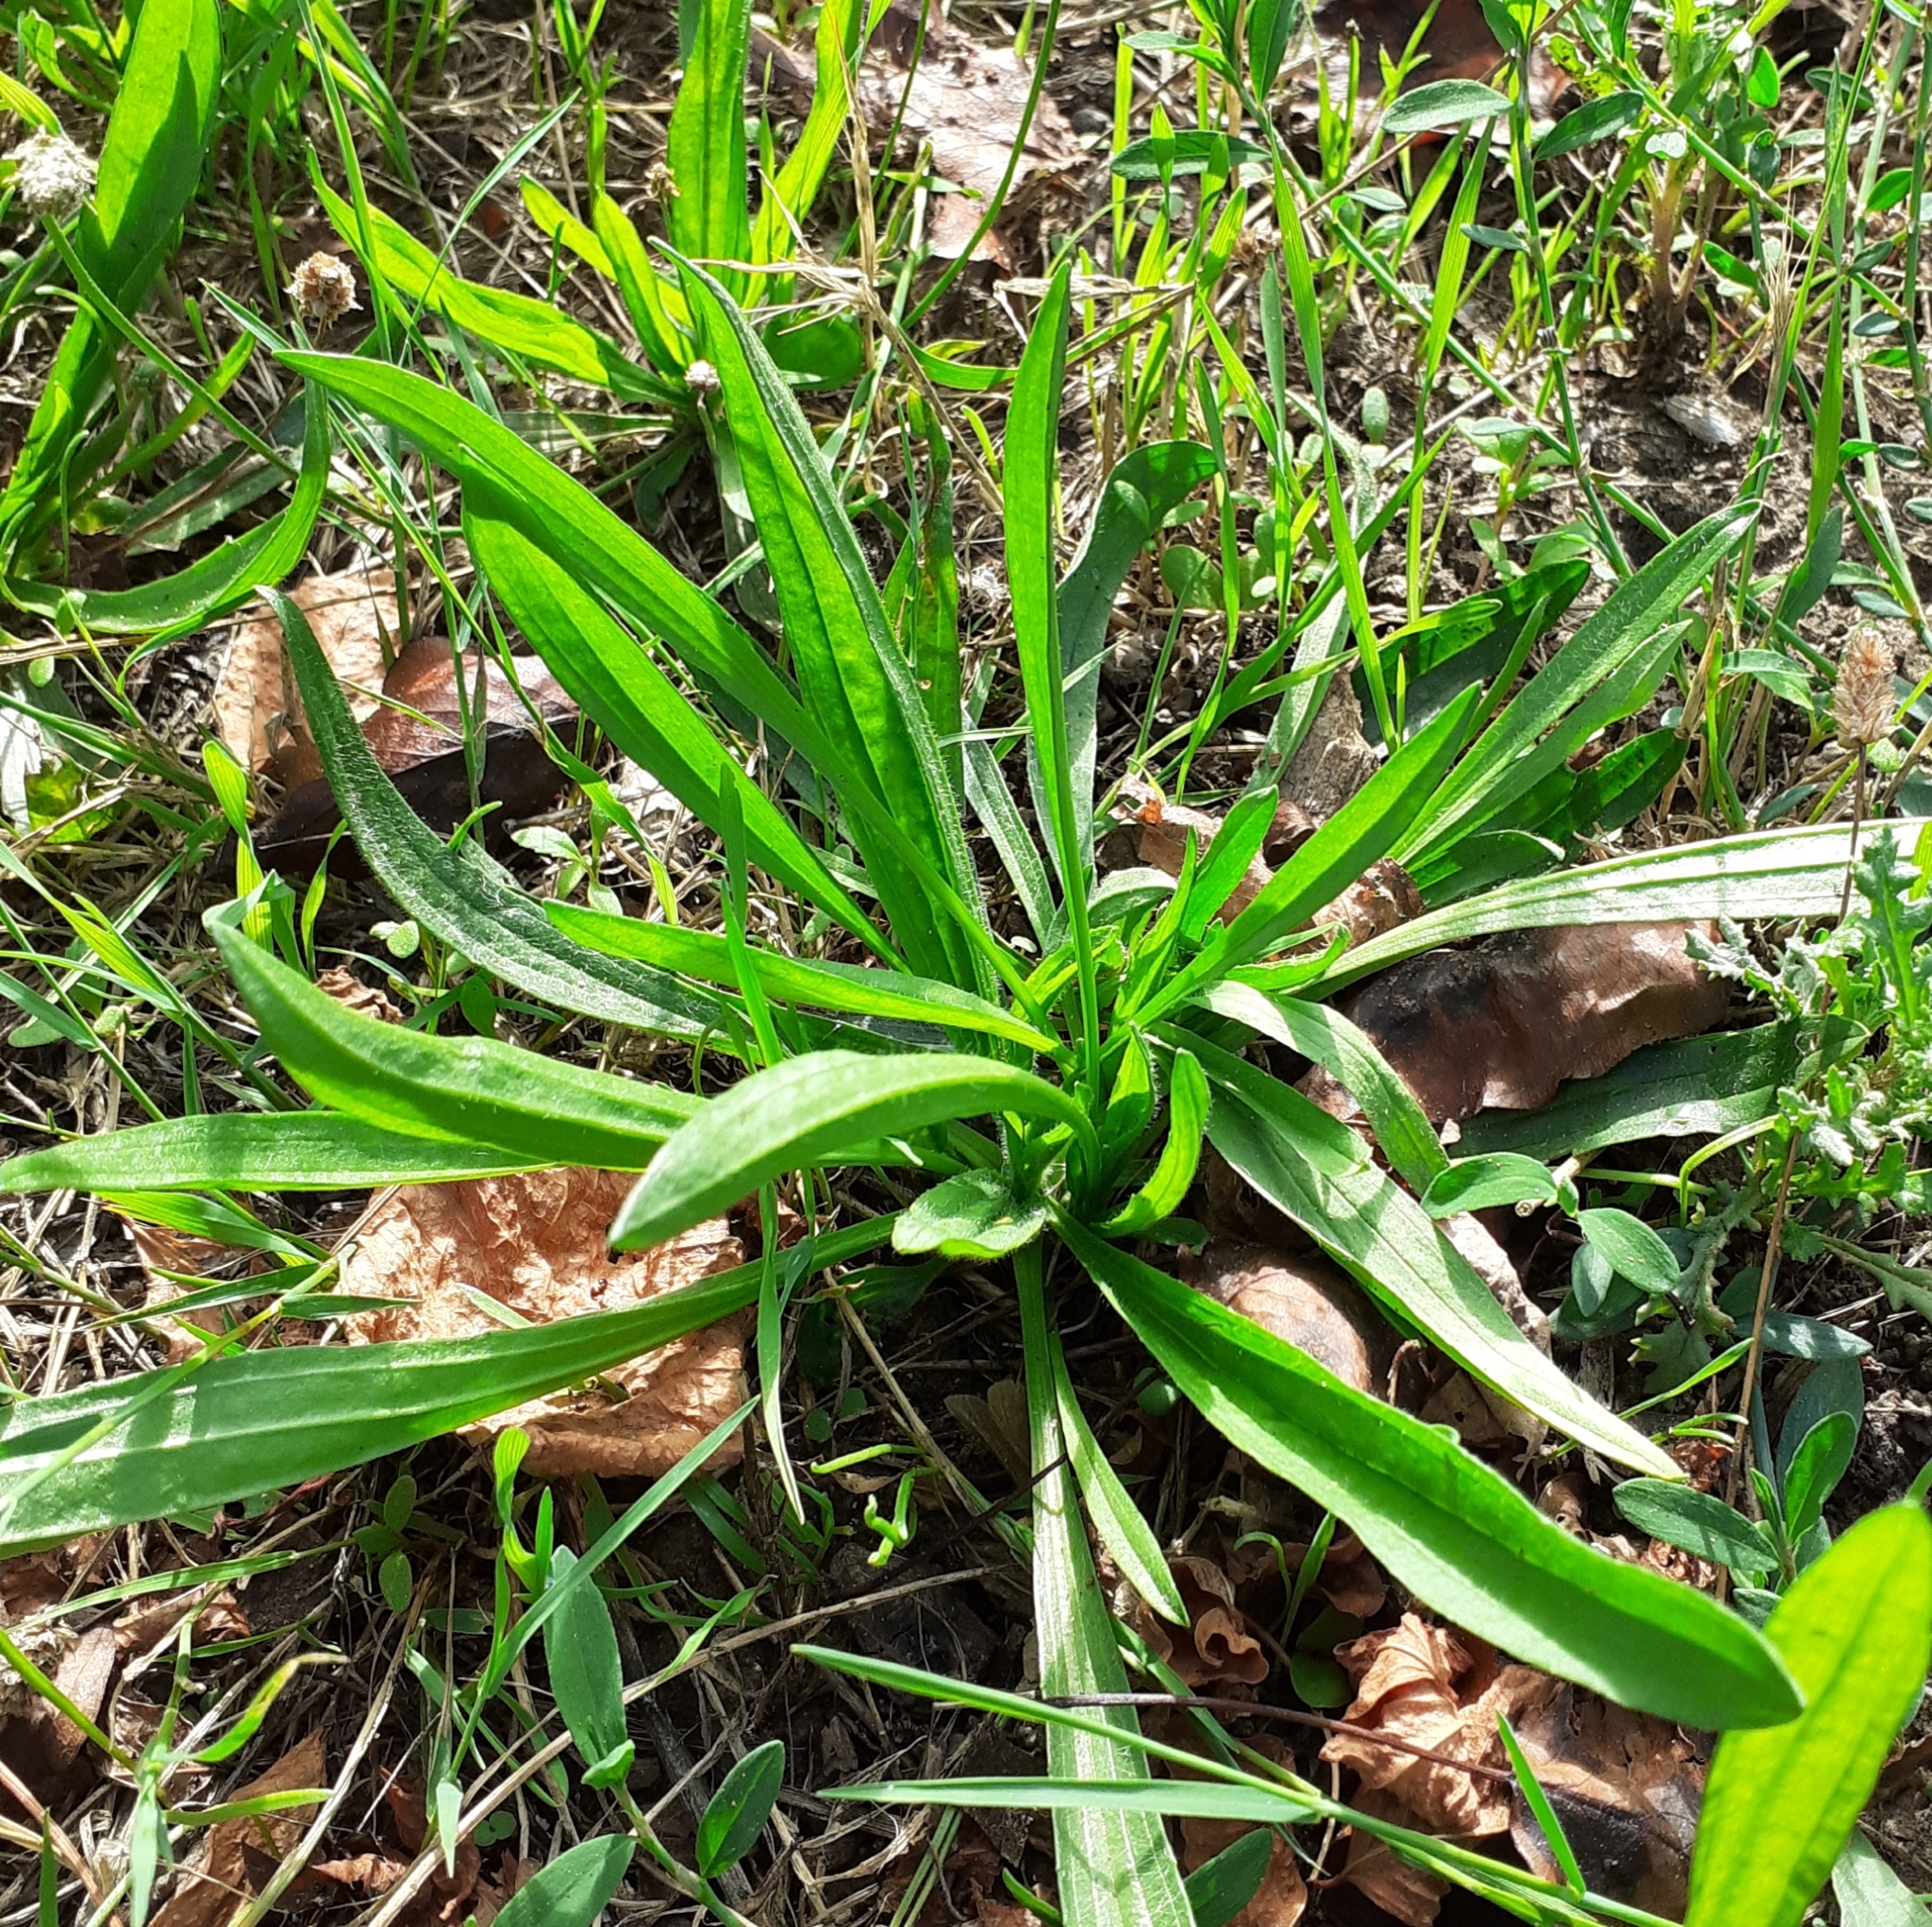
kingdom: Plantae
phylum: Tracheophyta
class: Magnoliopsida
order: Lamiales
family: Plantaginaceae
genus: Plantago
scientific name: Plantago lanceolata
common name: Ribwort plantain
